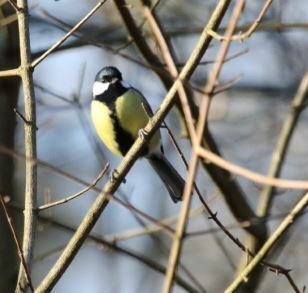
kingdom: Animalia
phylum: Chordata
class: Aves
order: Passeriformes
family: Paridae
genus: Parus
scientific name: Parus major
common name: Great tit
